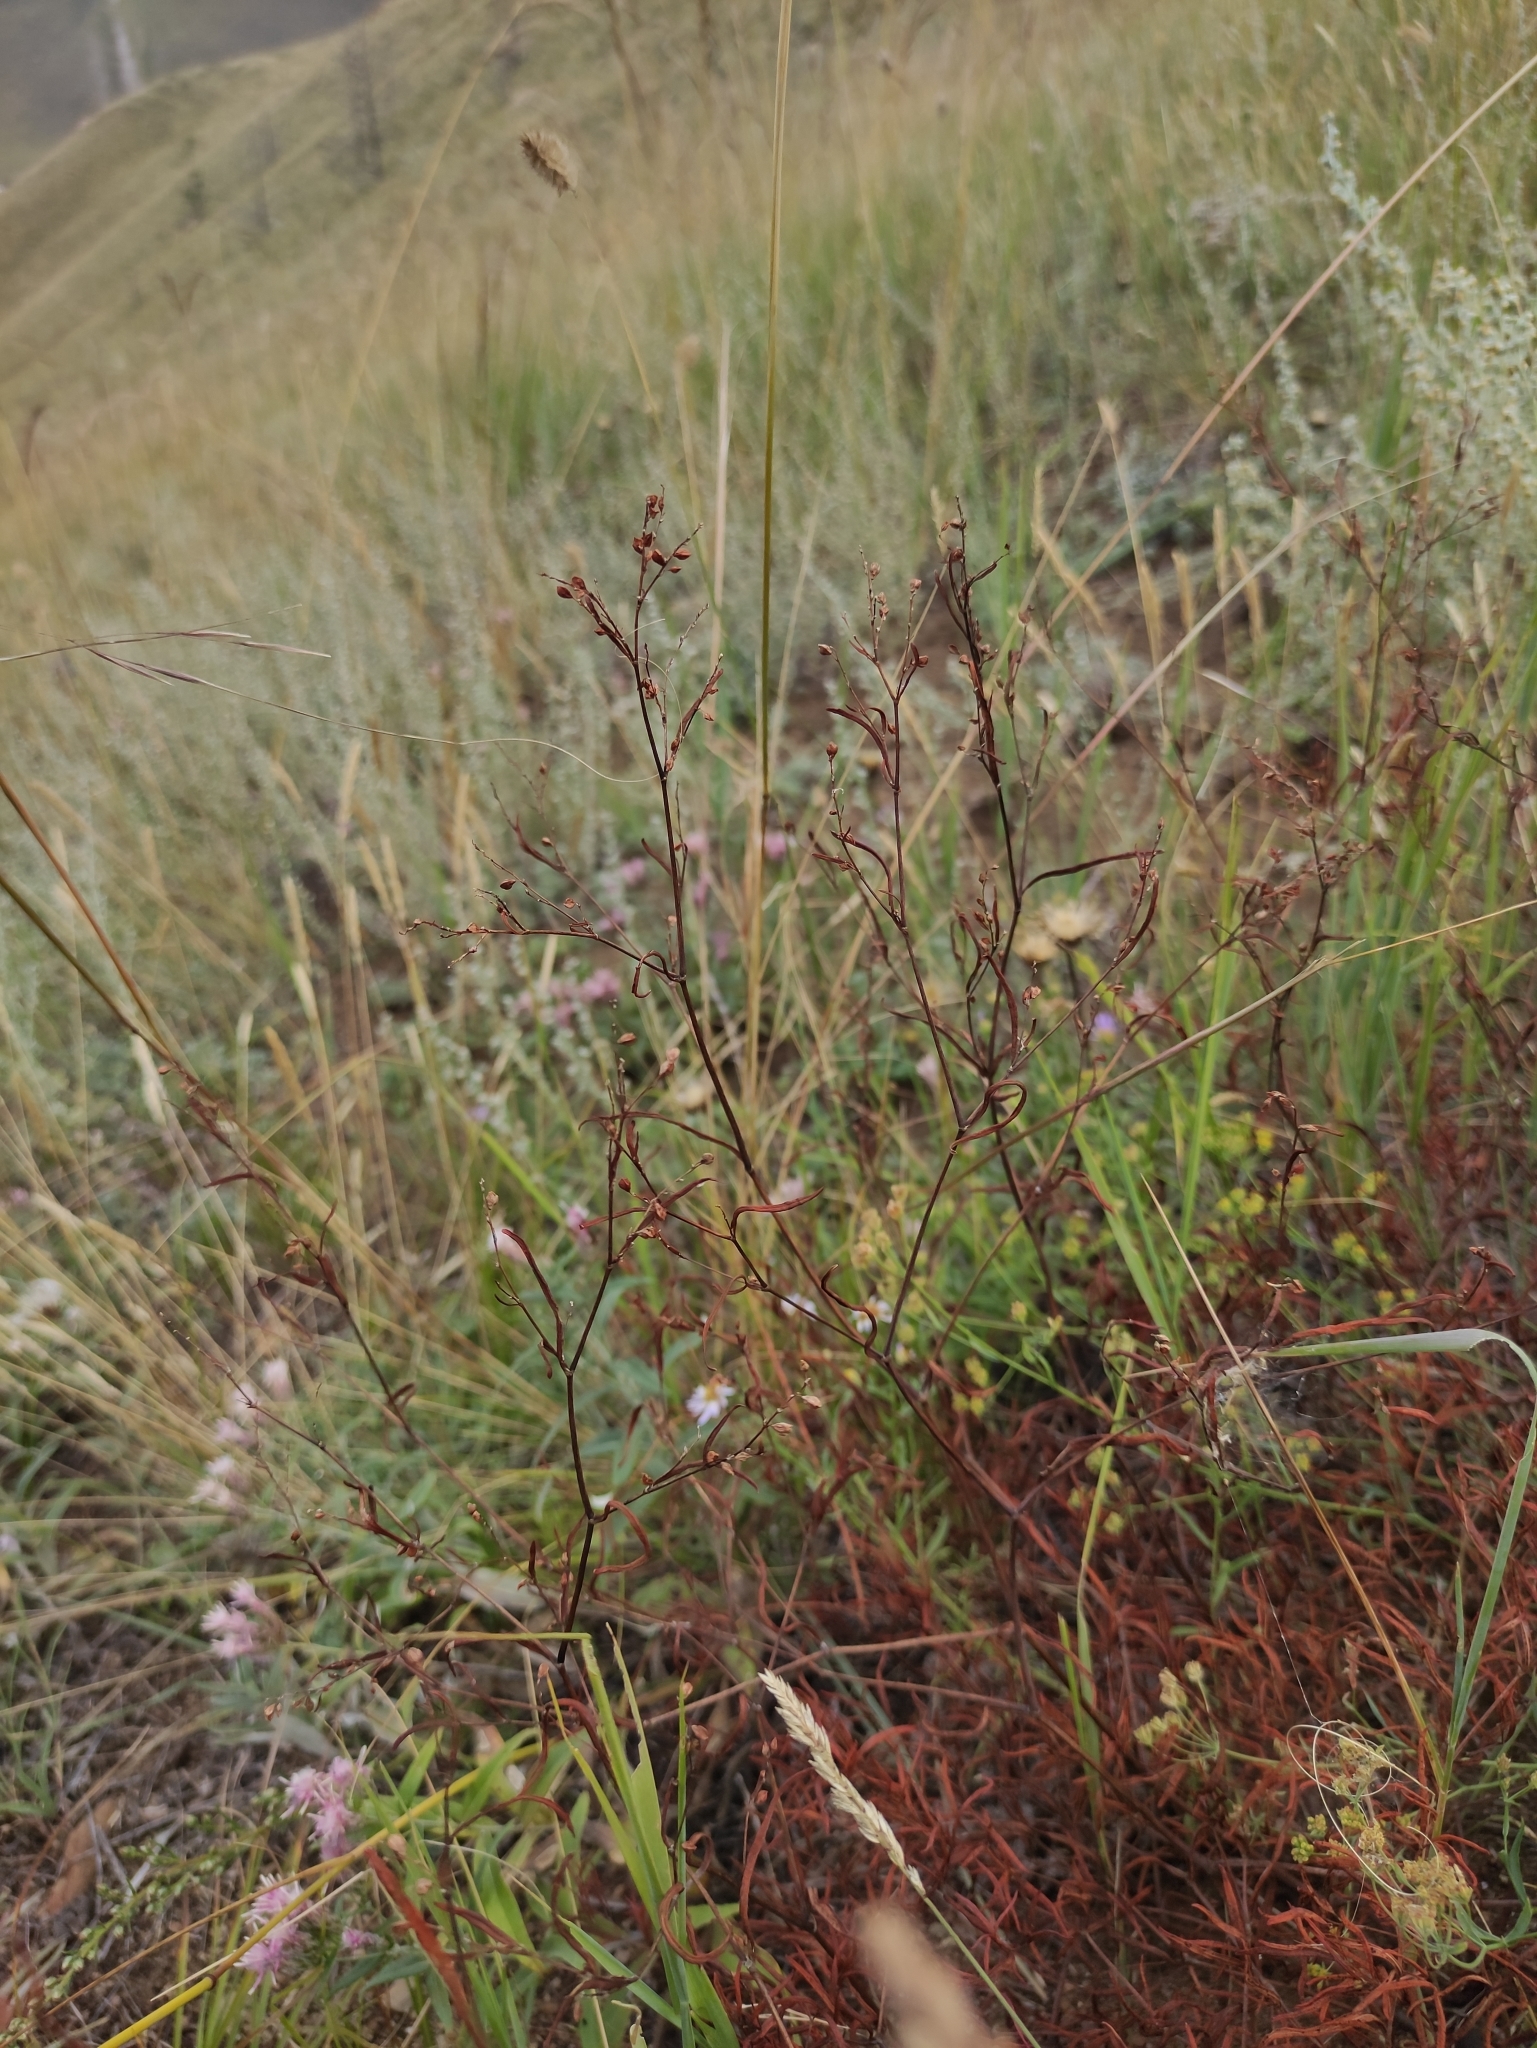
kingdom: Plantae
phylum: Tracheophyta
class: Magnoliopsida
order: Caryophyllales
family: Polygonaceae
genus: Persicaria
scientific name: Persicaria angustifolia
